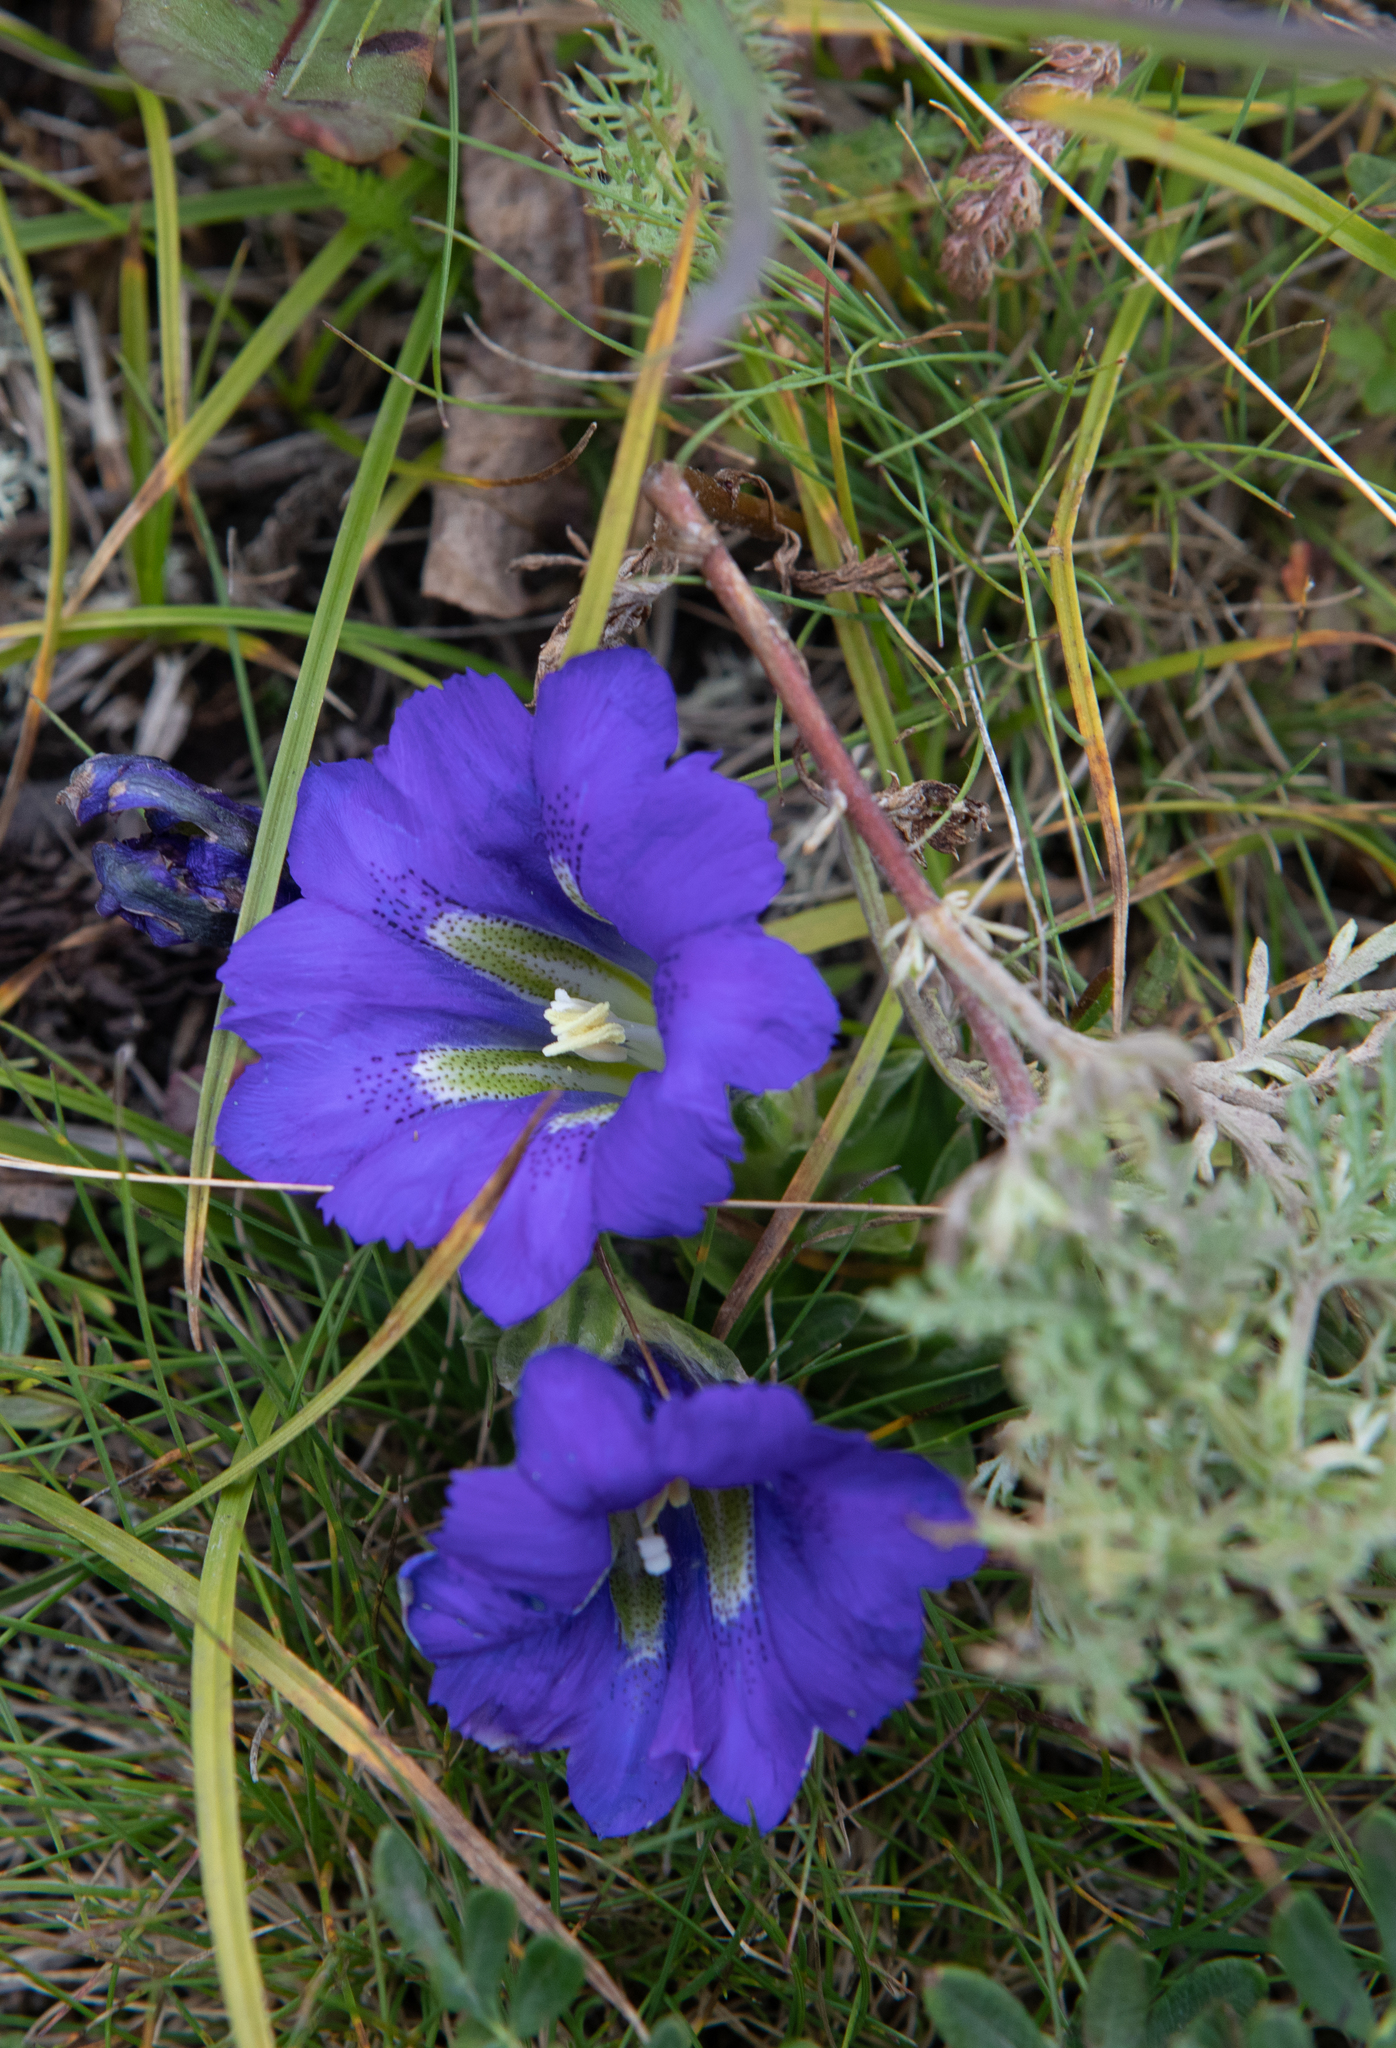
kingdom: Plantae
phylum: Tracheophyta
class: Magnoliopsida
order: Gentianales
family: Gentianaceae
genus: Gentiana
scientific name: Gentiana grandiflora
